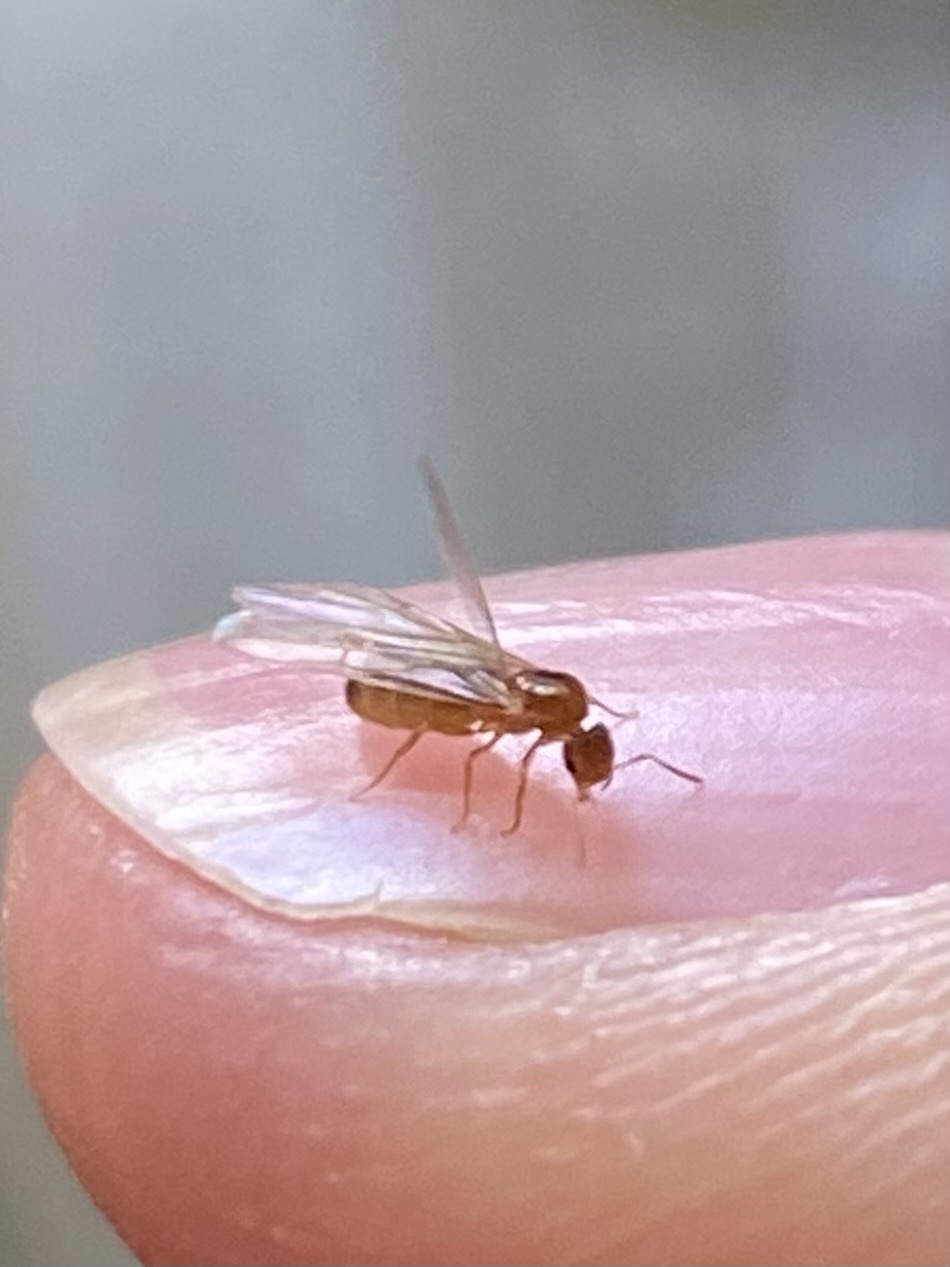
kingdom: Animalia
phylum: Arthropoda
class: Insecta
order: Hymenoptera
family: Formicidae
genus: Brachymyrmex
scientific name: Brachymyrmex depilis
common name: Hairless rover ant
